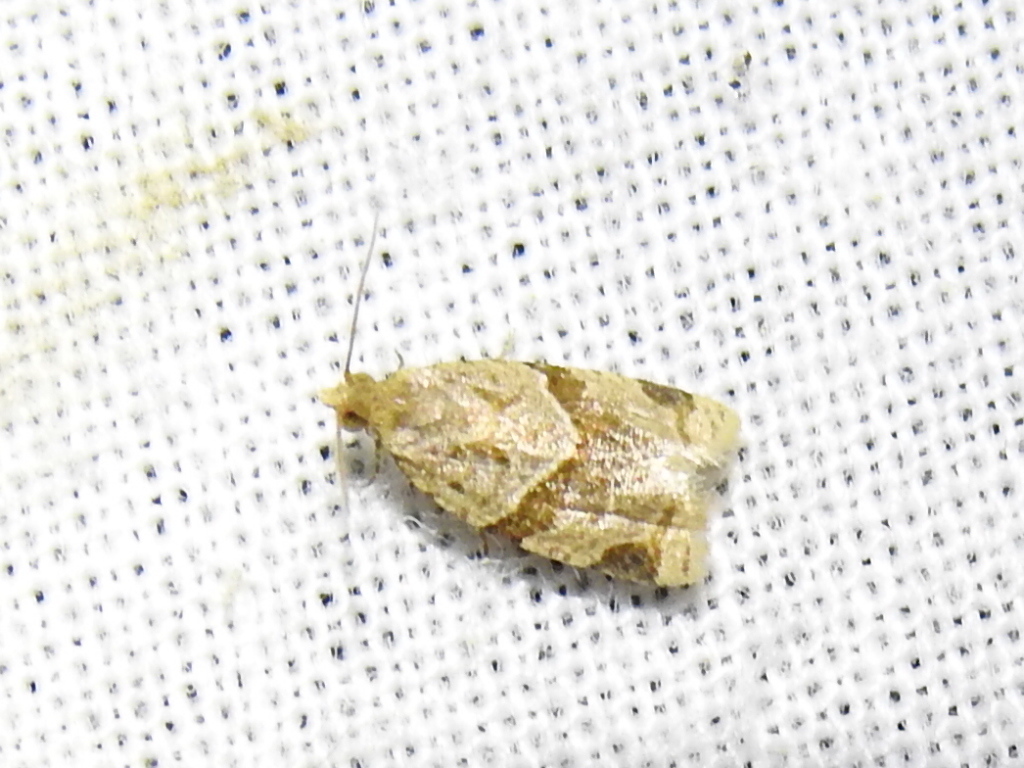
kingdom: Animalia
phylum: Arthropoda
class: Insecta
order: Lepidoptera
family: Tortricidae
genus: Clepsis
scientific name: Clepsis peritana
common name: Garden tortrix
